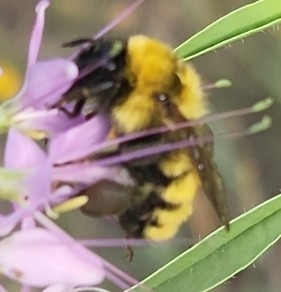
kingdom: Animalia
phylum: Arthropoda
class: Insecta
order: Hymenoptera
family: Apidae
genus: Bombus
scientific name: Bombus fervidus
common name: Yellow bumble bee
